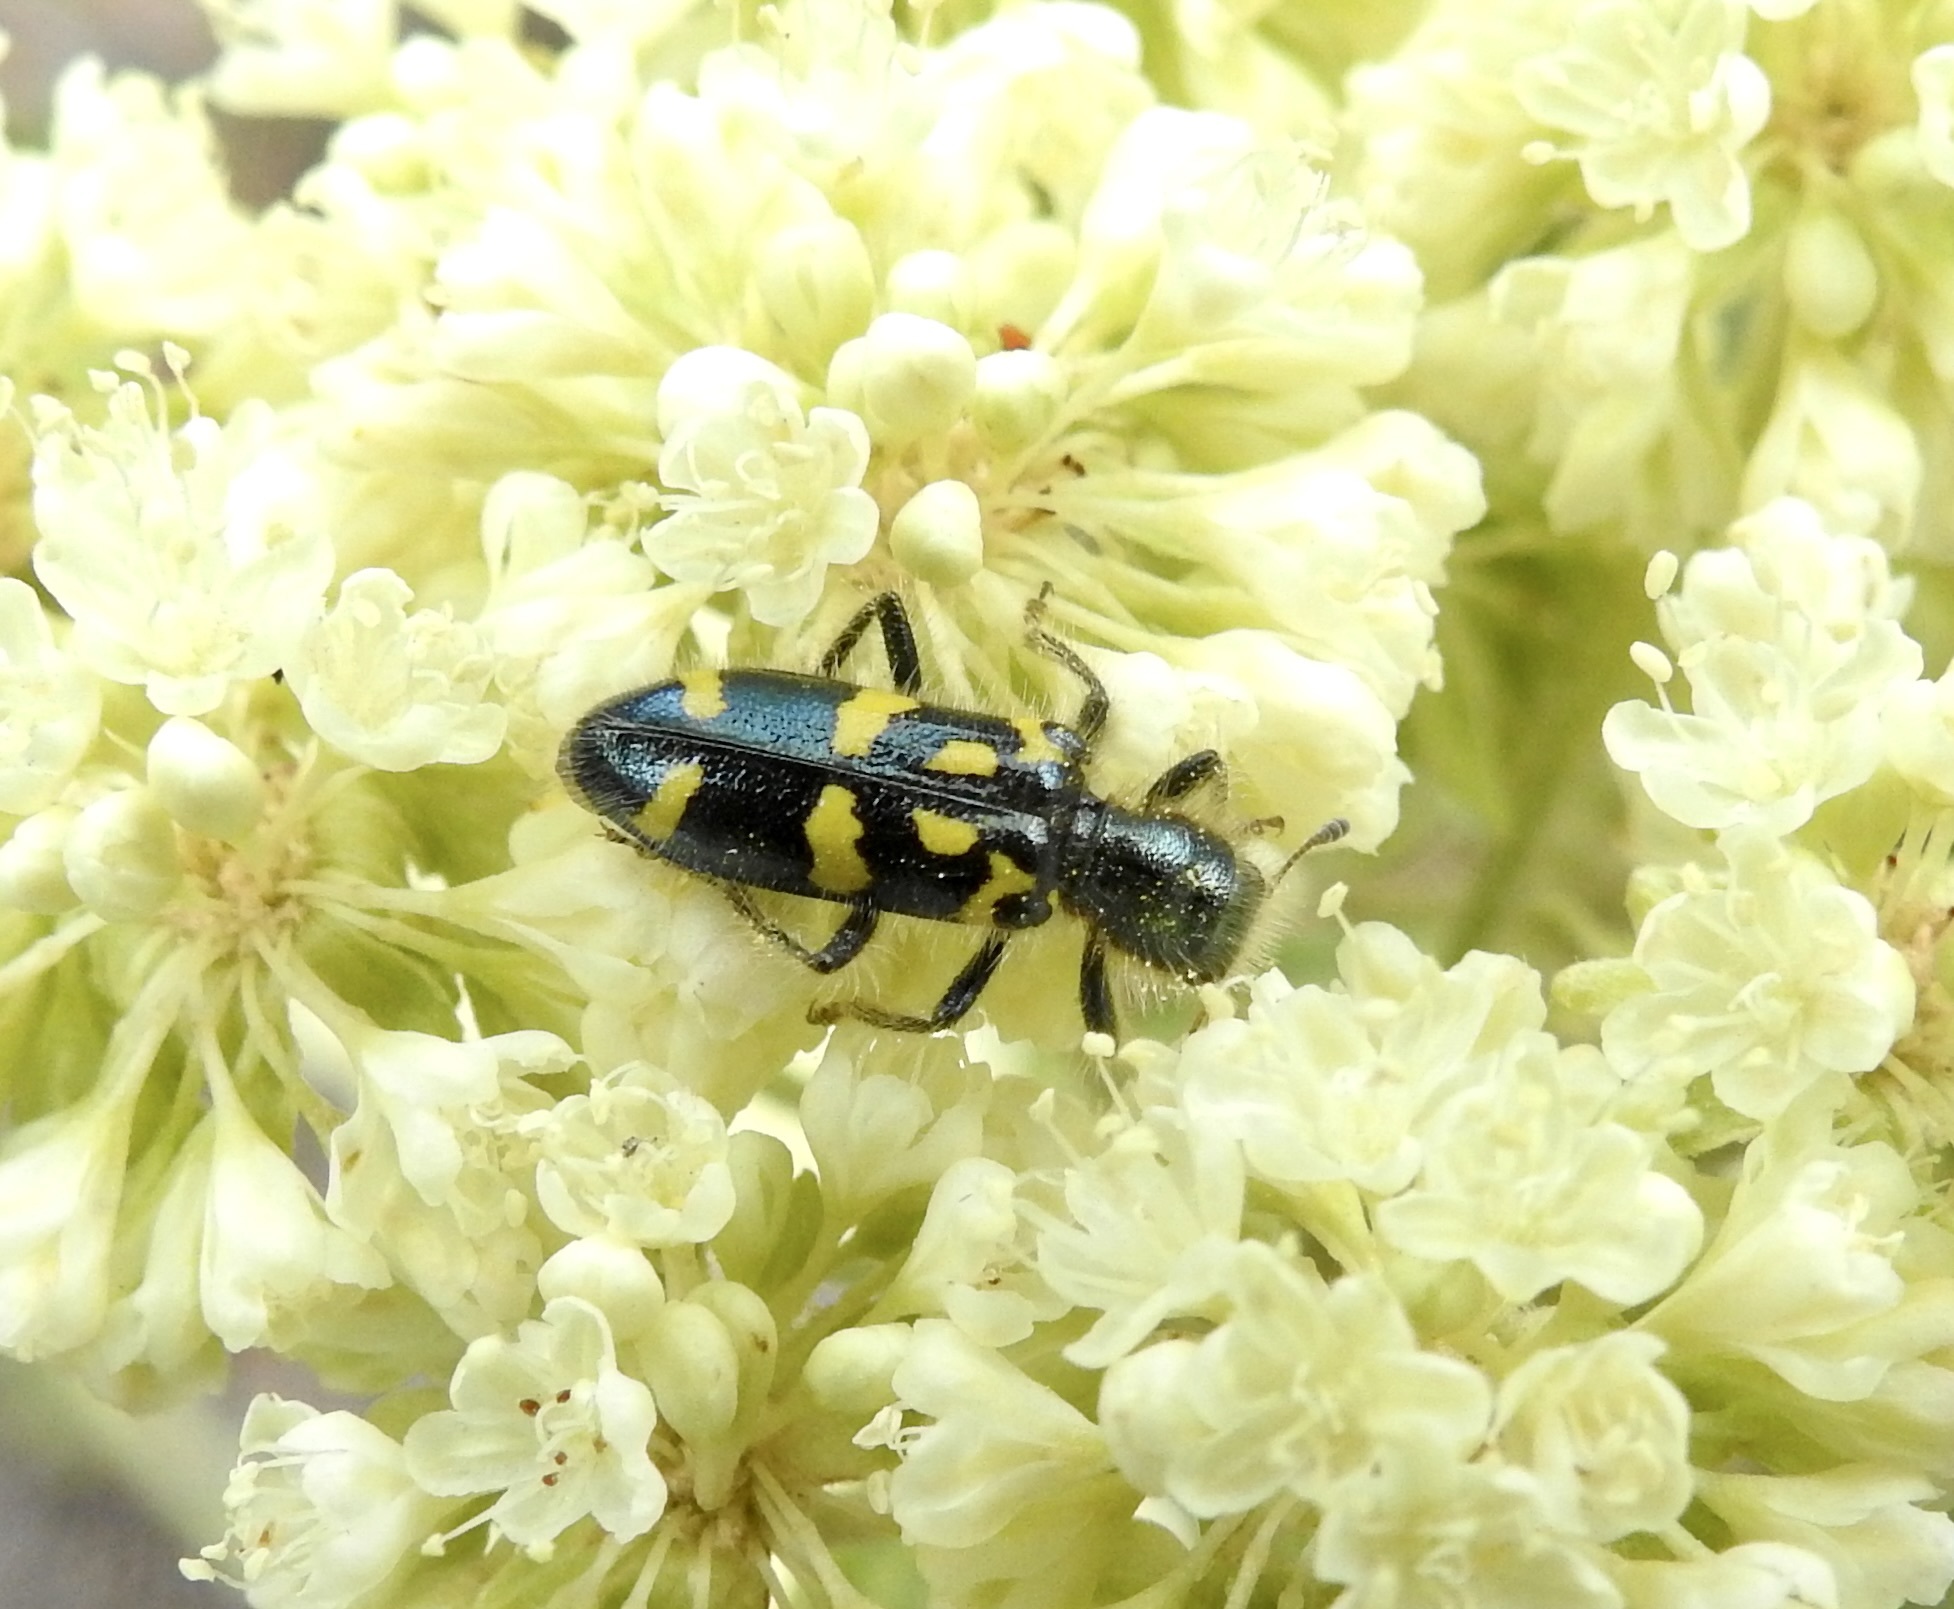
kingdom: Animalia
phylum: Arthropoda
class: Insecta
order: Coleoptera
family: Cleridae
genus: Trichodes
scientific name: Trichodes ornatus
